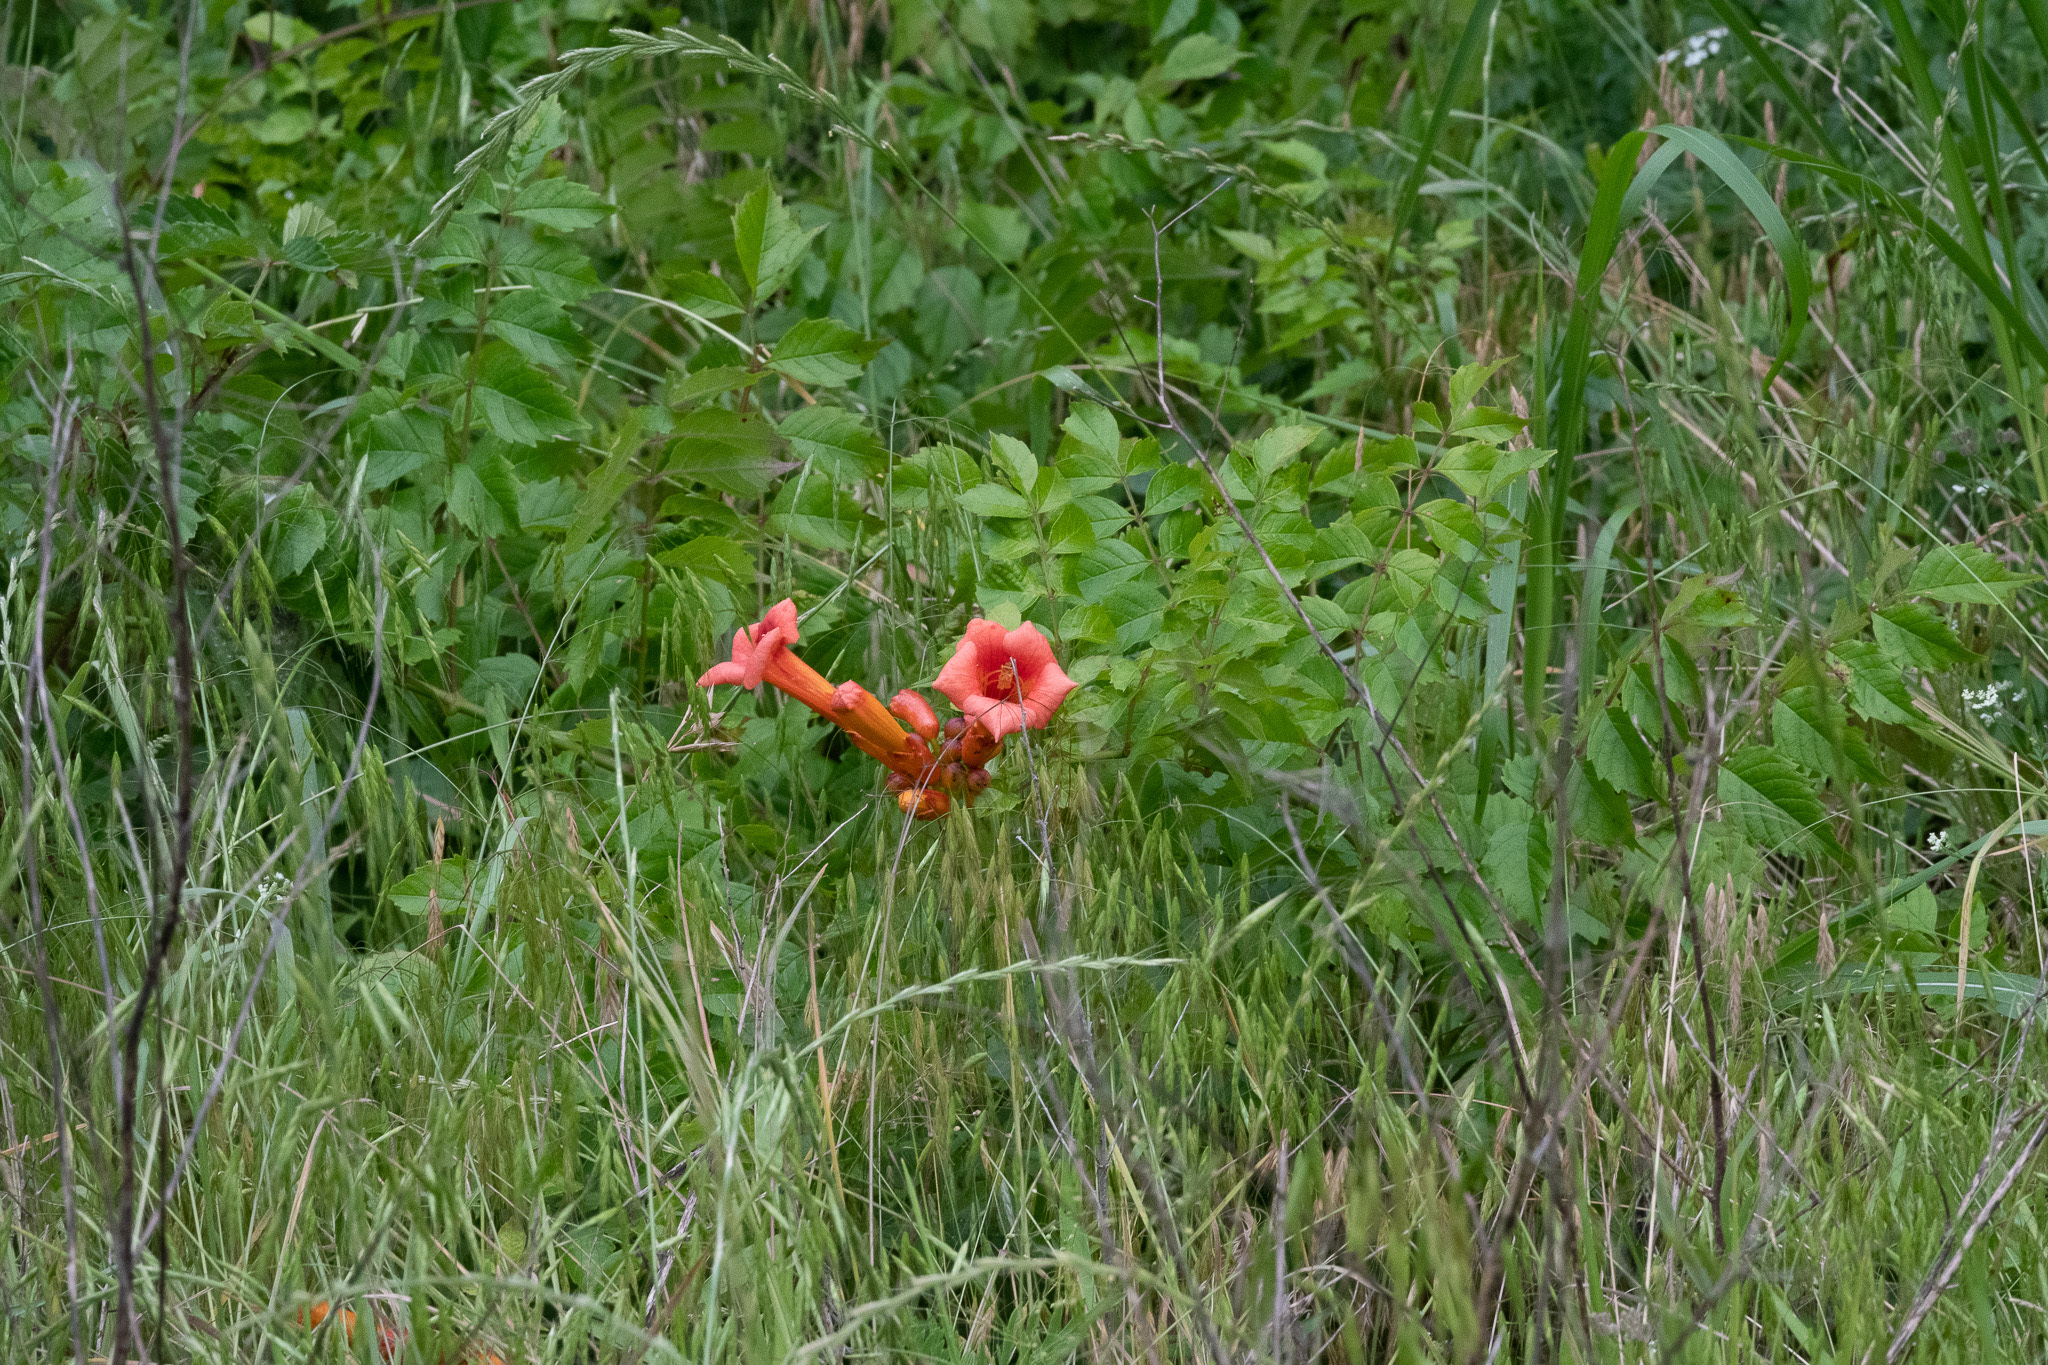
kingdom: Plantae
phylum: Tracheophyta
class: Magnoliopsida
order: Lamiales
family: Bignoniaceae
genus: Campsis
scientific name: Campsis radicans
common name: Trumpet-creeper
